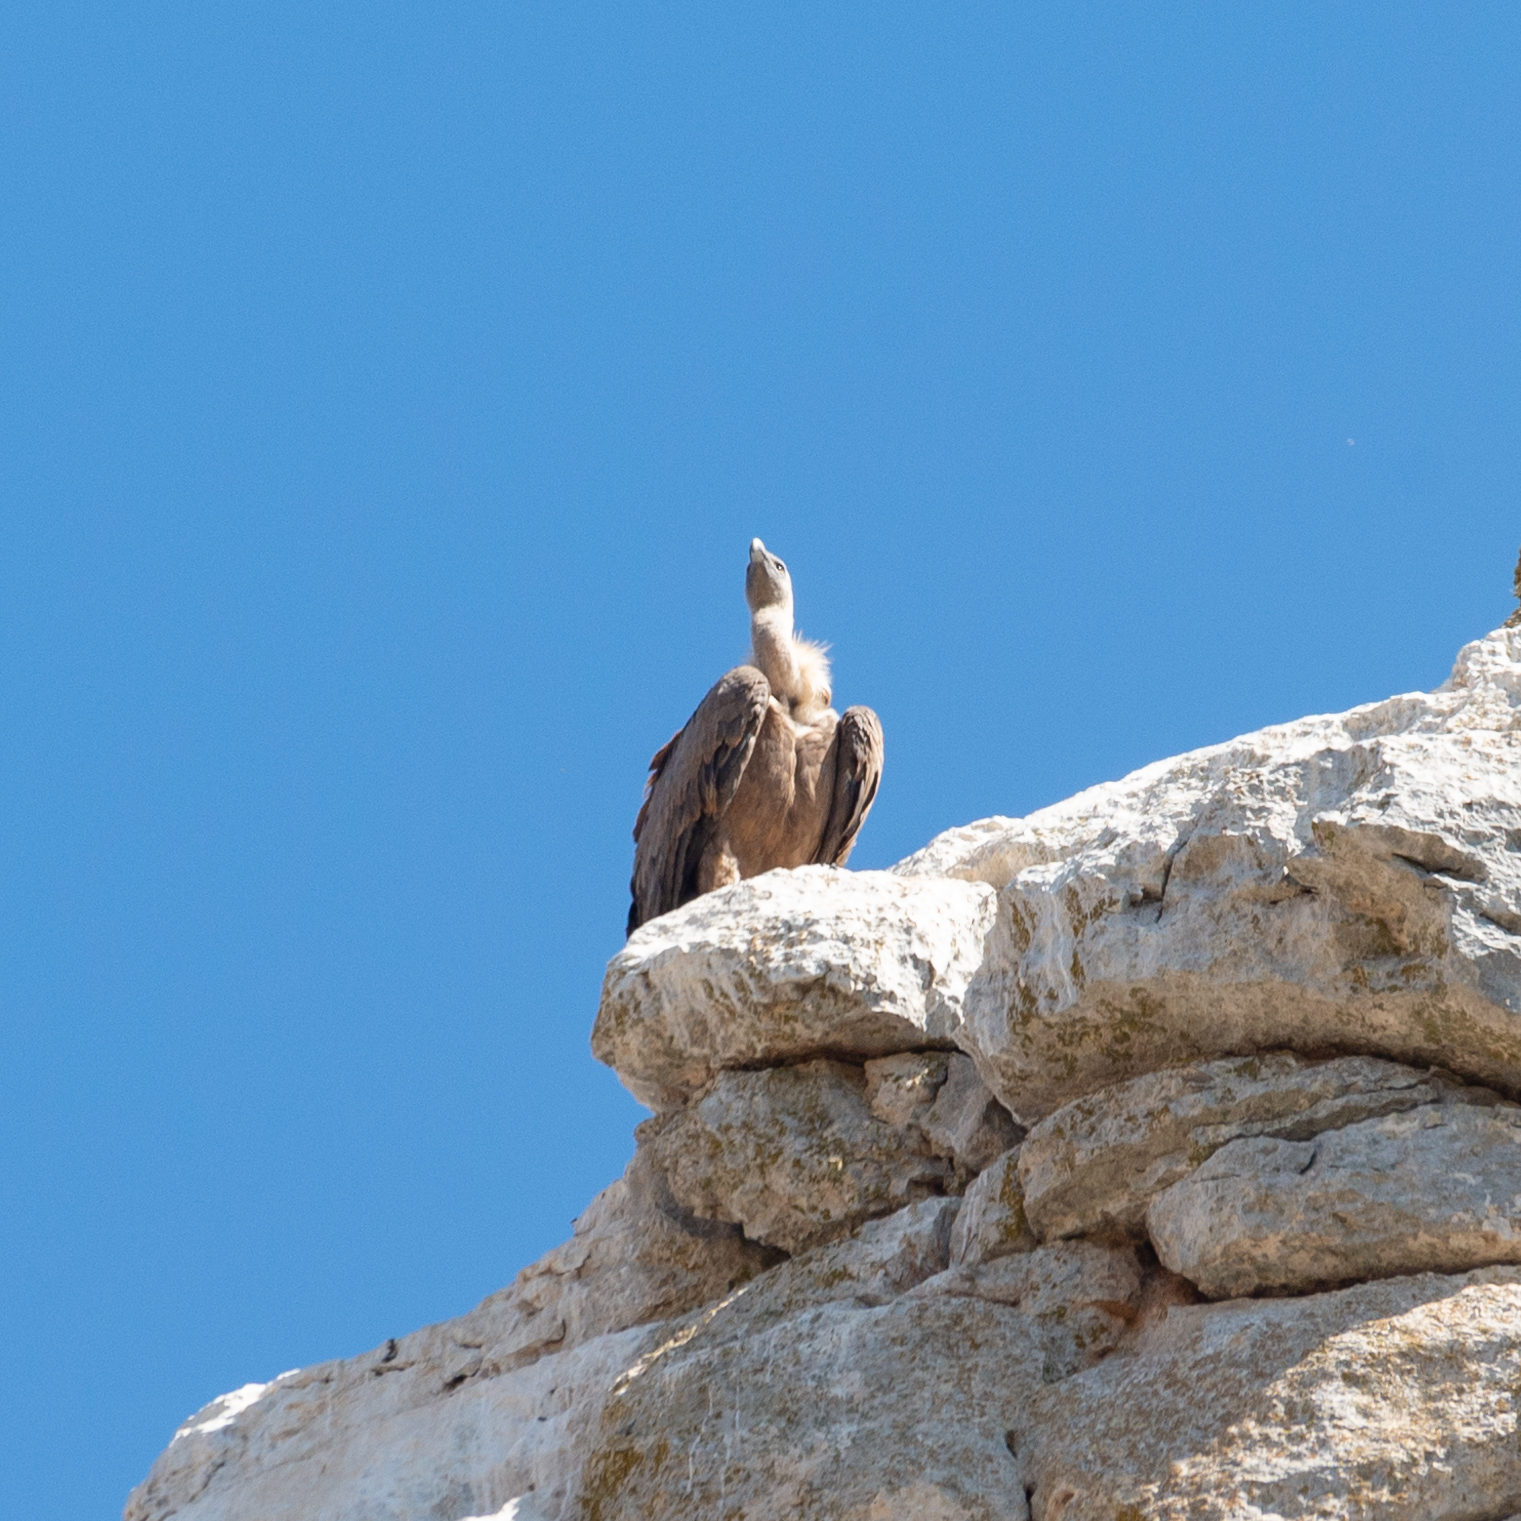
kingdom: Animalia
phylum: Chordata
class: Aves
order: Accipitriformes
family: Accipitridae
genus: Gyps
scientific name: Gyps fulvus
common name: Griffon vulture
